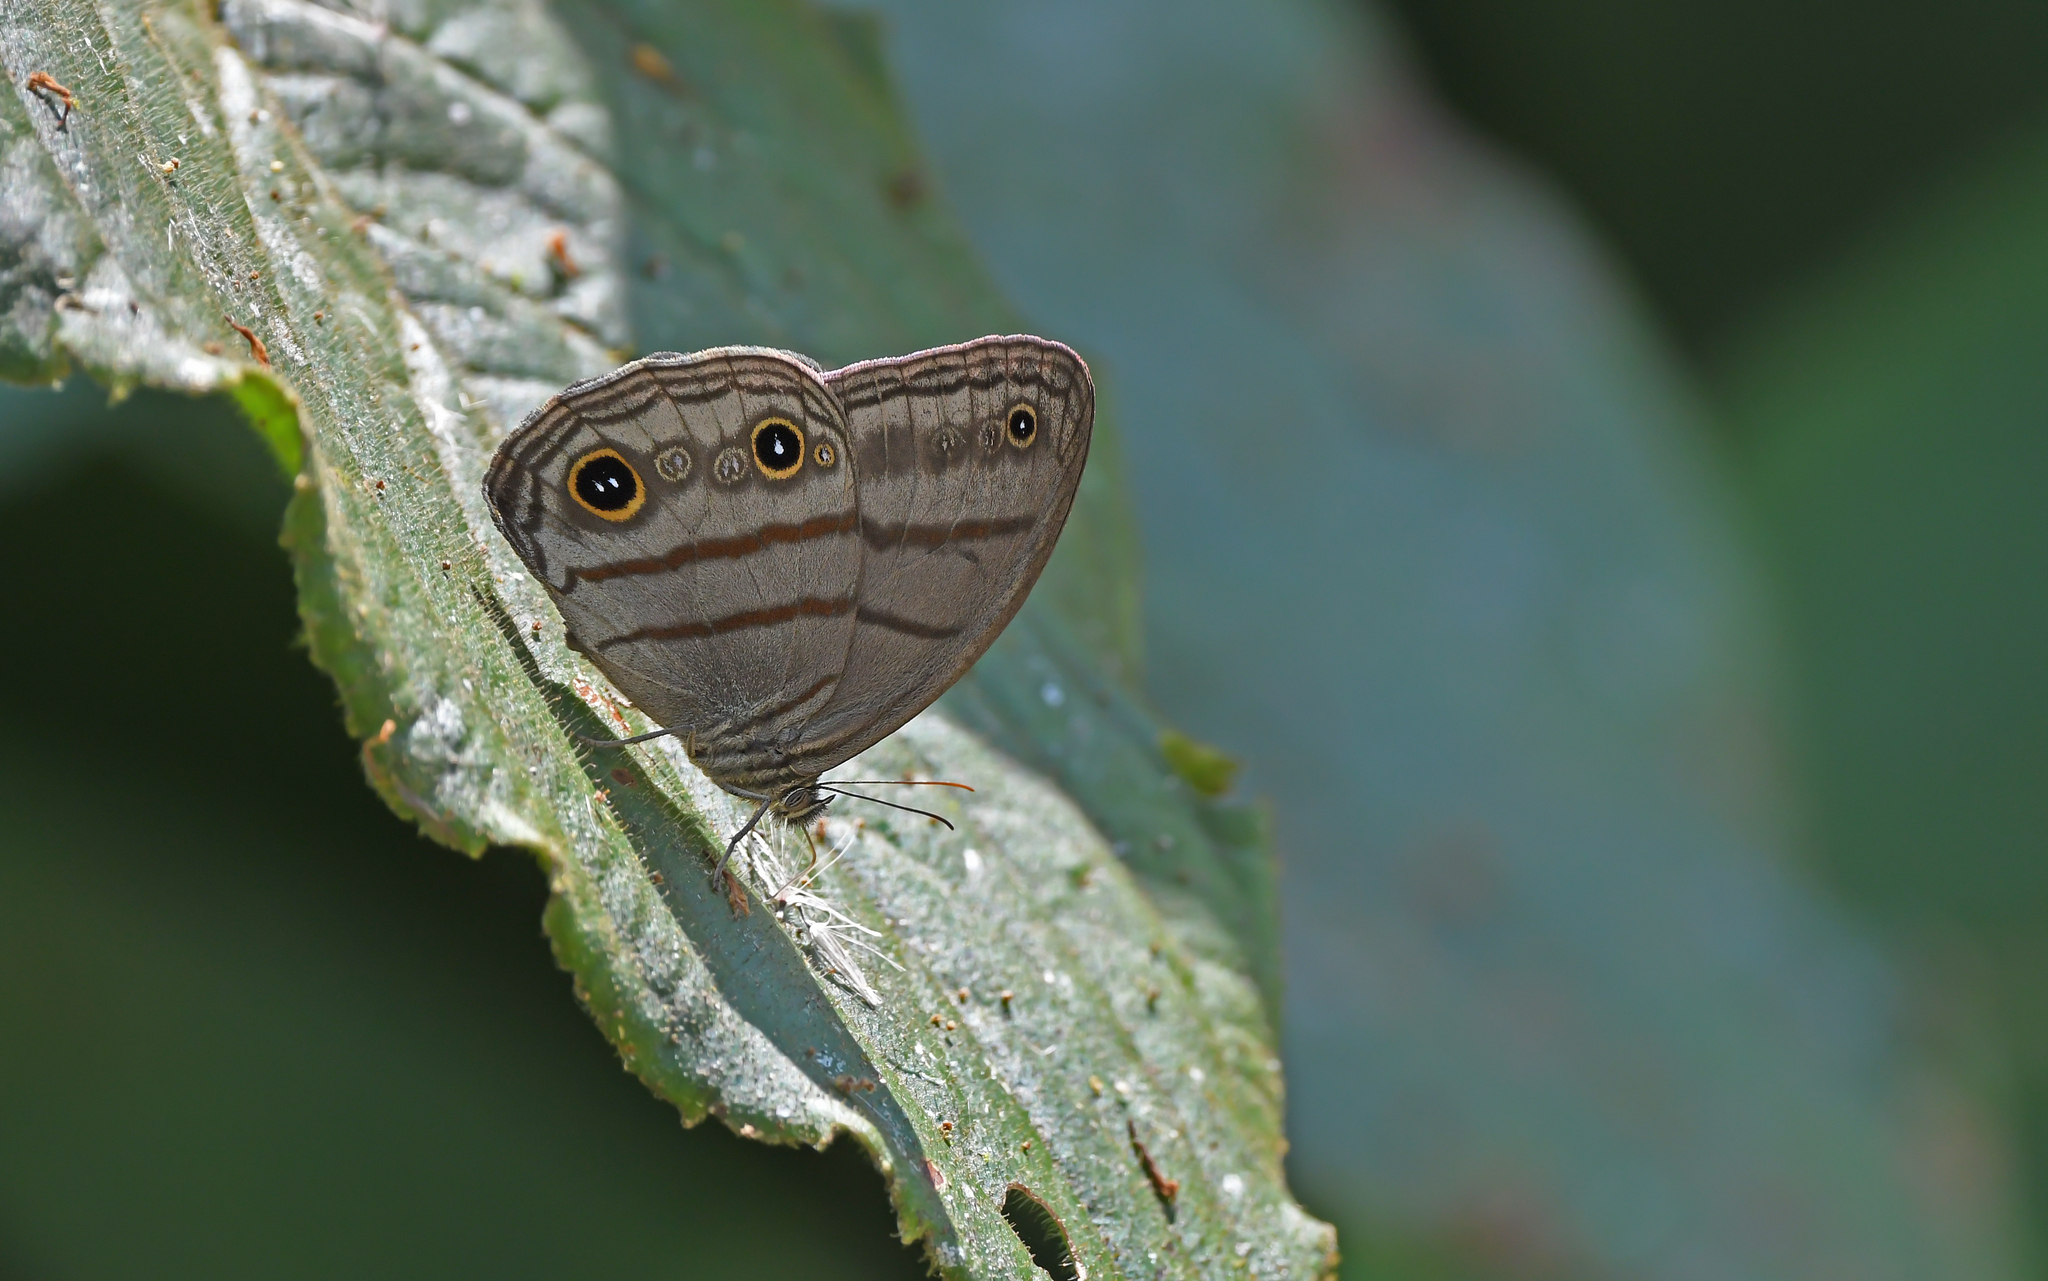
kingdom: Animalia
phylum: Arthropoda
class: Insecta
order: Lepidoptera
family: Nymphalidae
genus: Megeuptychia
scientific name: Megeuptychia antonoe
